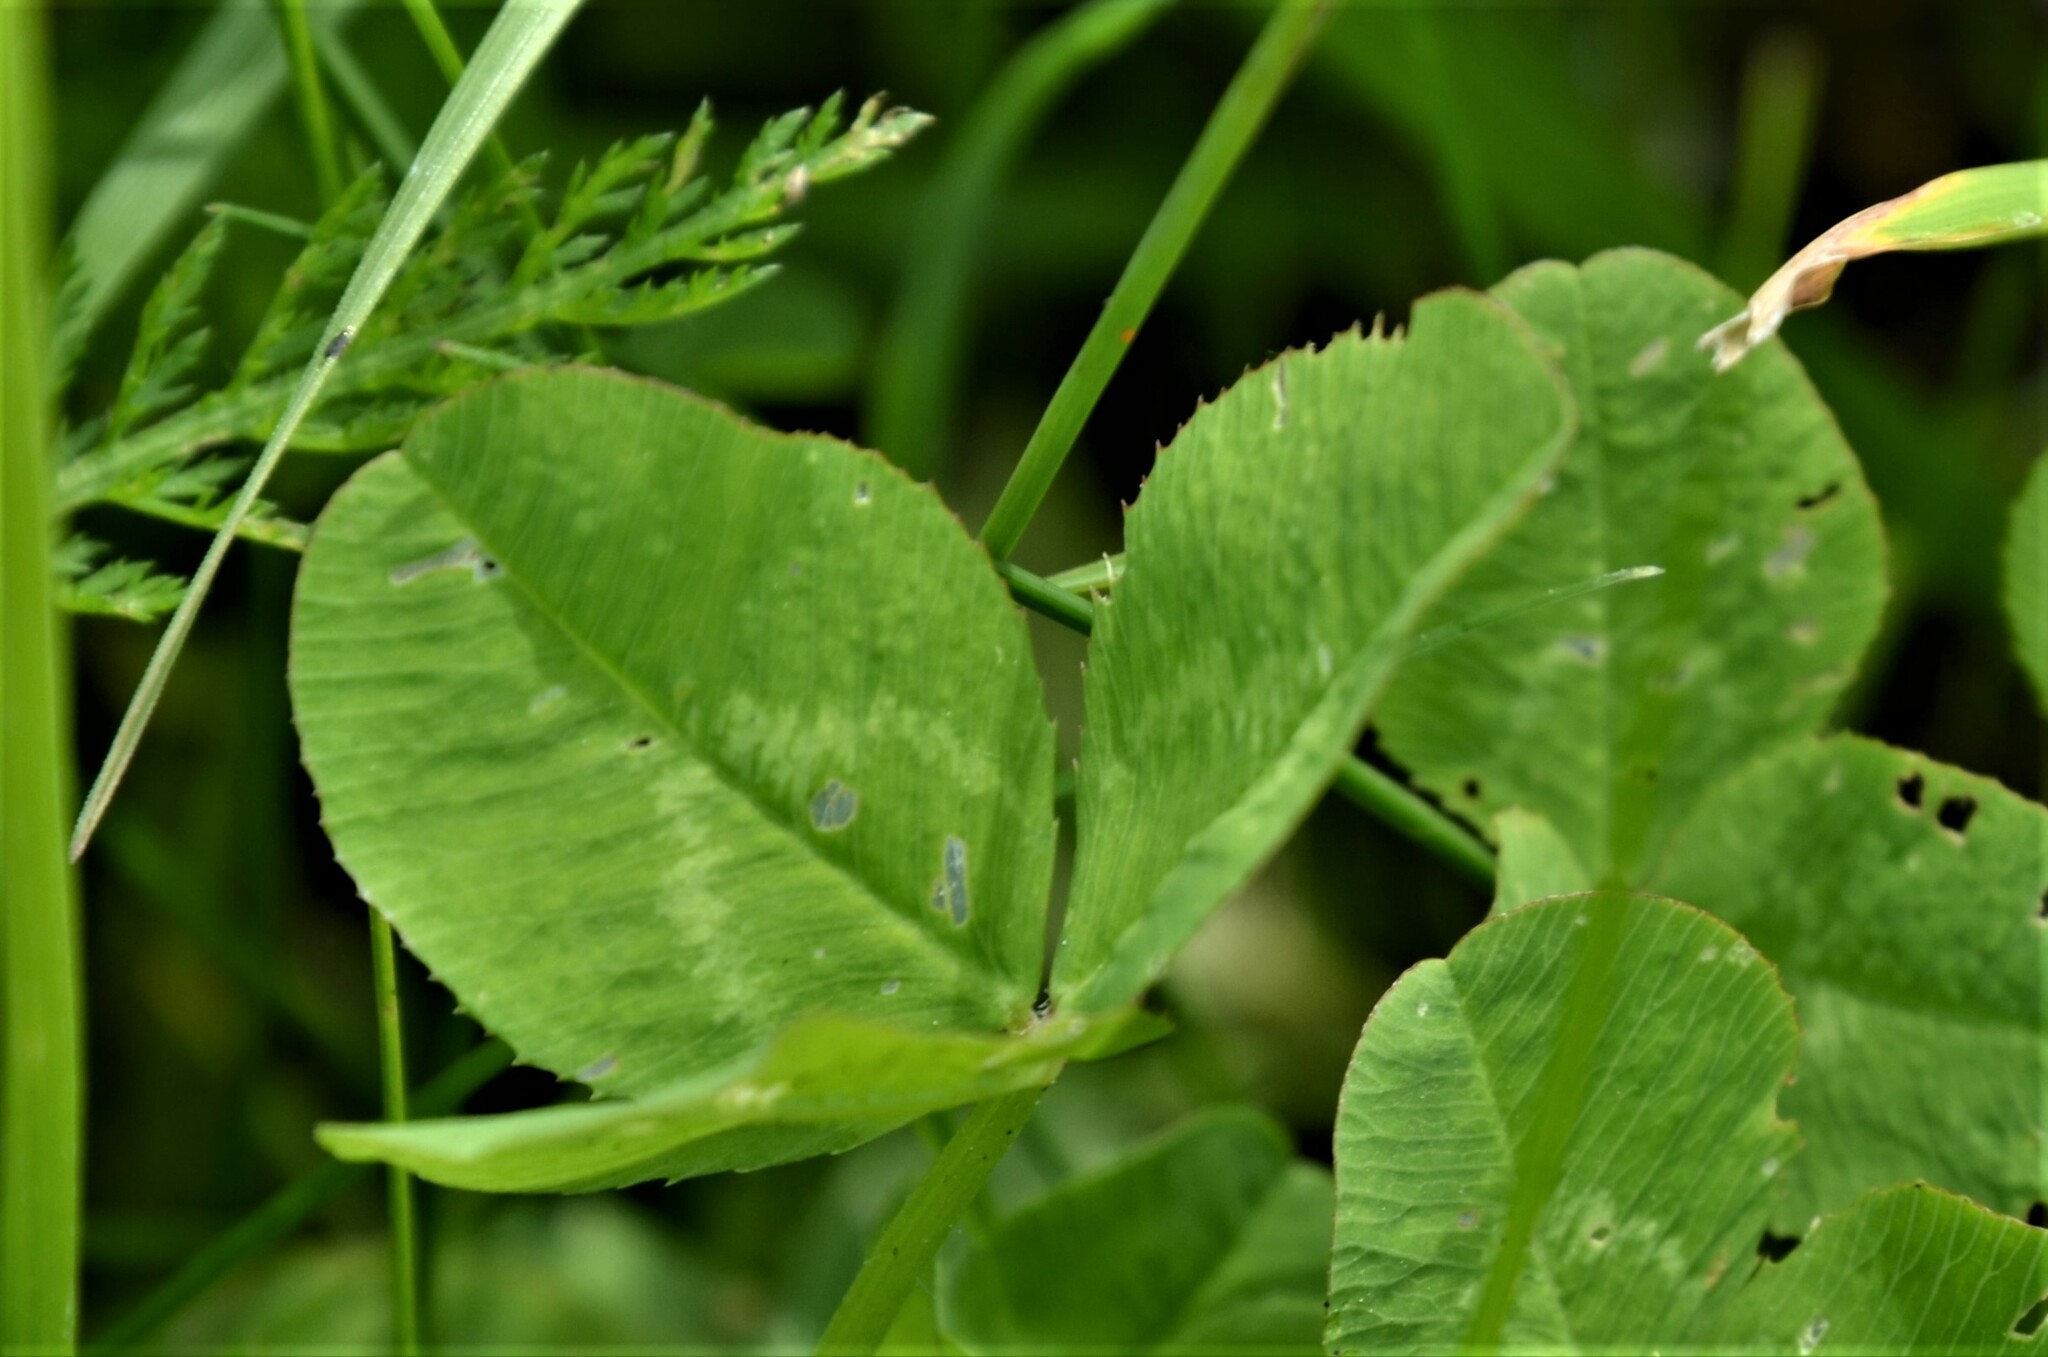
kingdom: Plantae
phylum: Tracheophyta
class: Magnoliopsida
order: Fabales
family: Fabaceae
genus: Trifolium
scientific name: Trifolium repens
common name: White clover
